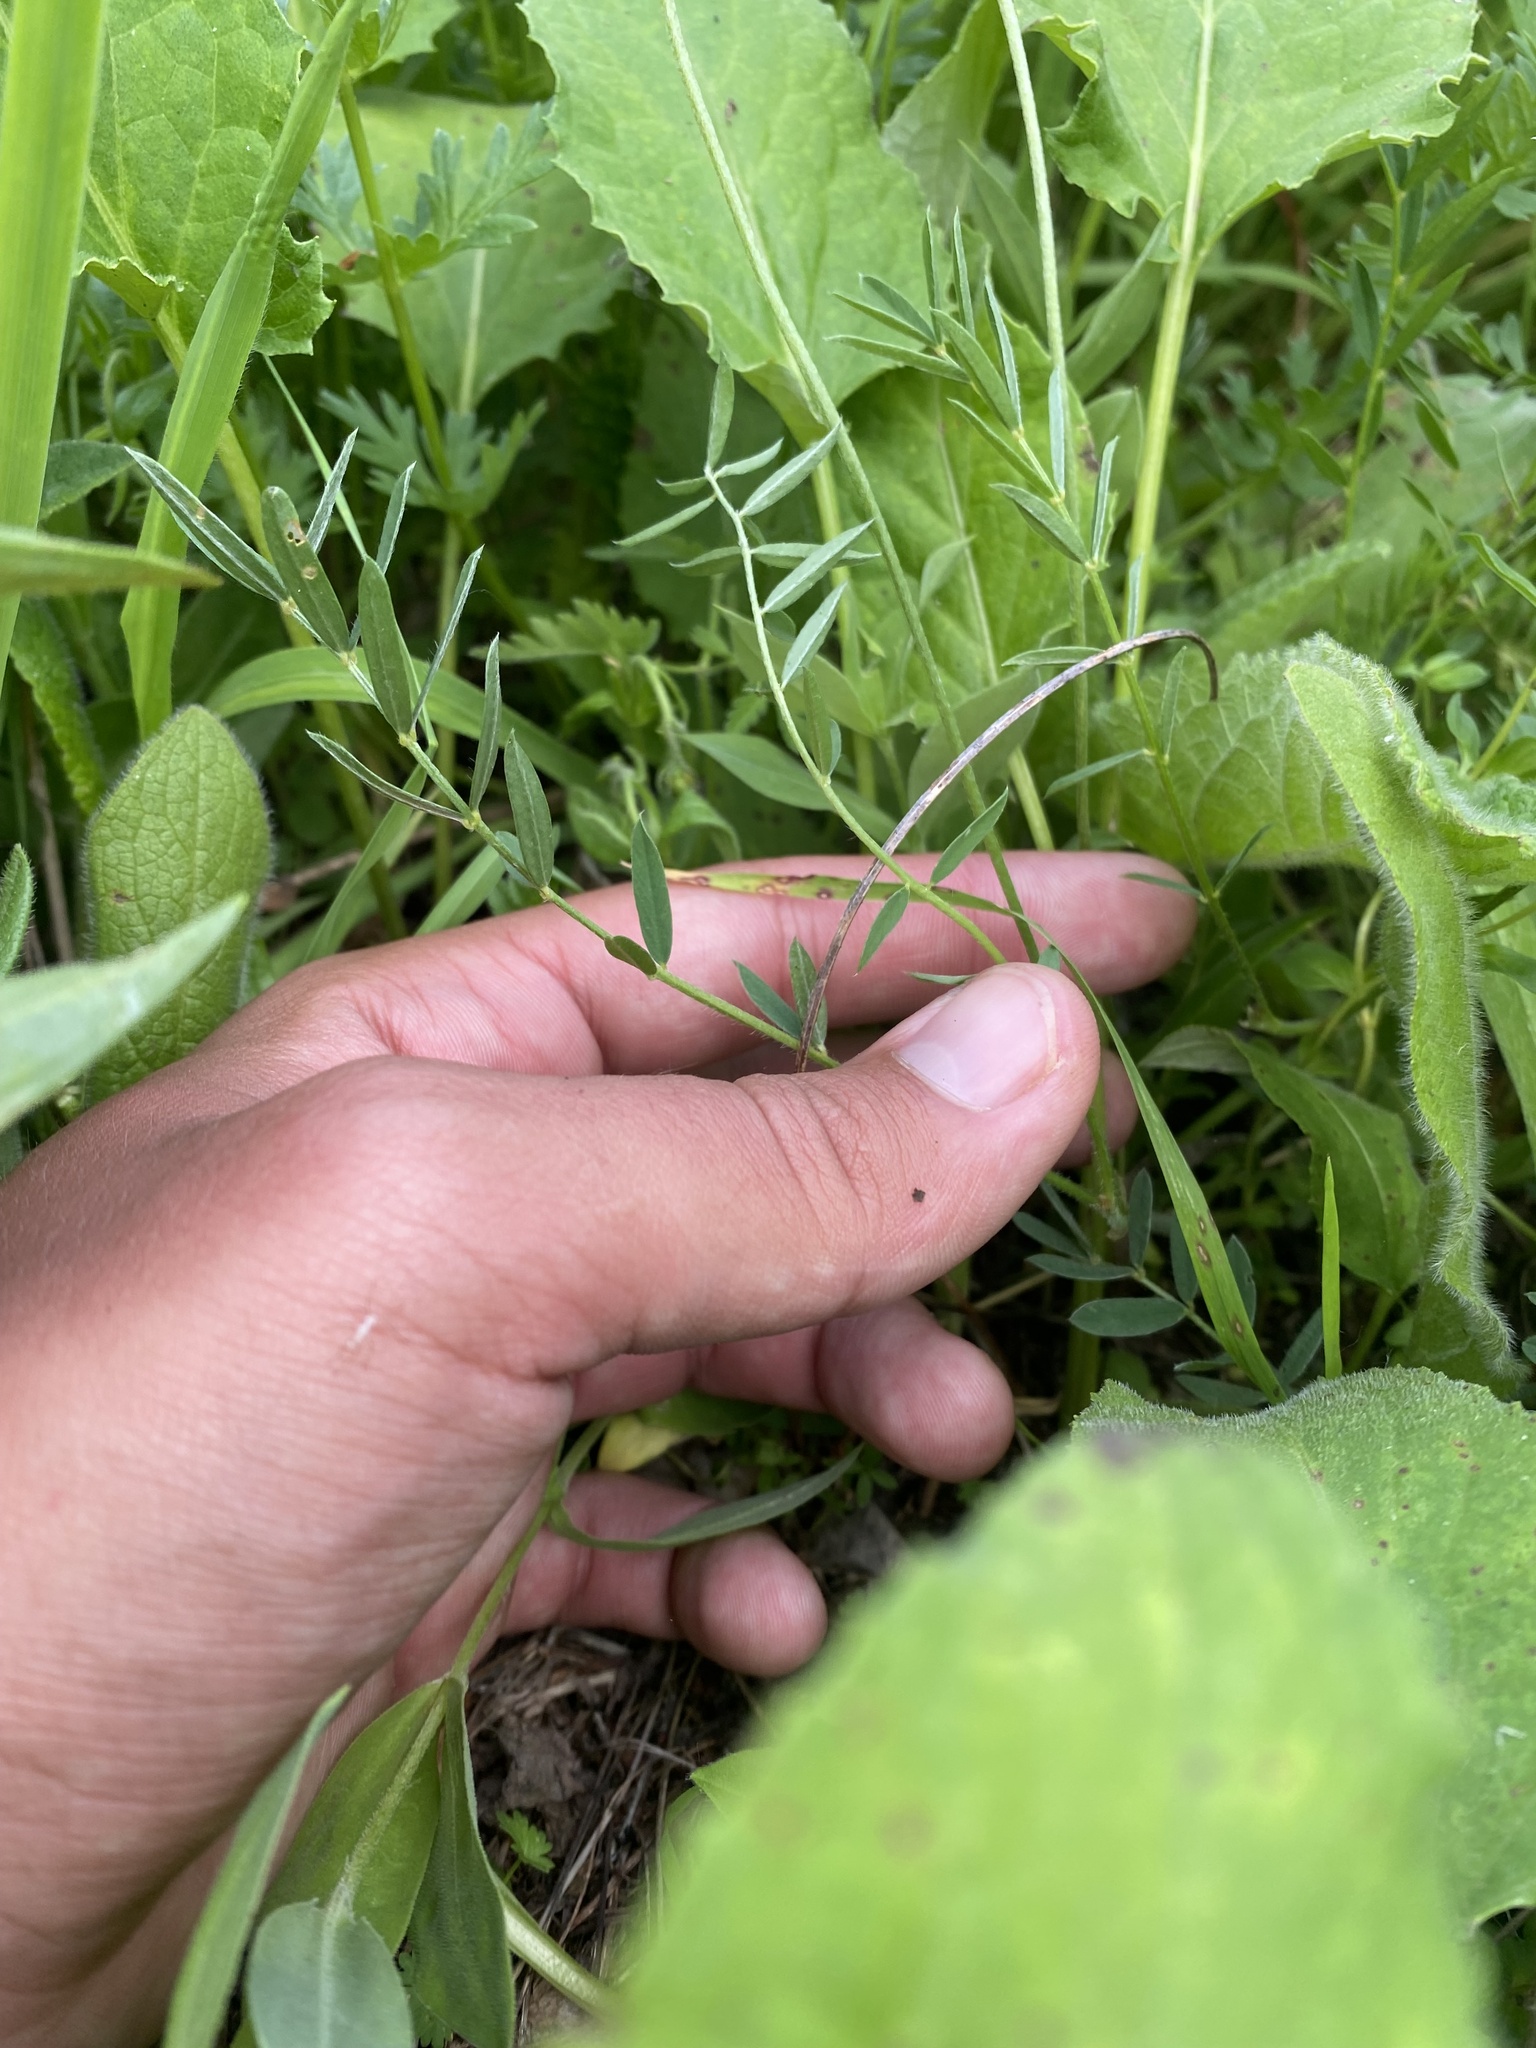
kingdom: Plantae
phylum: Tracheophyta
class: Magnoliopsida
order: Fabales
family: Fabaceae
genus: Onobrychis
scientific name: Onobrychis biebersteinii
